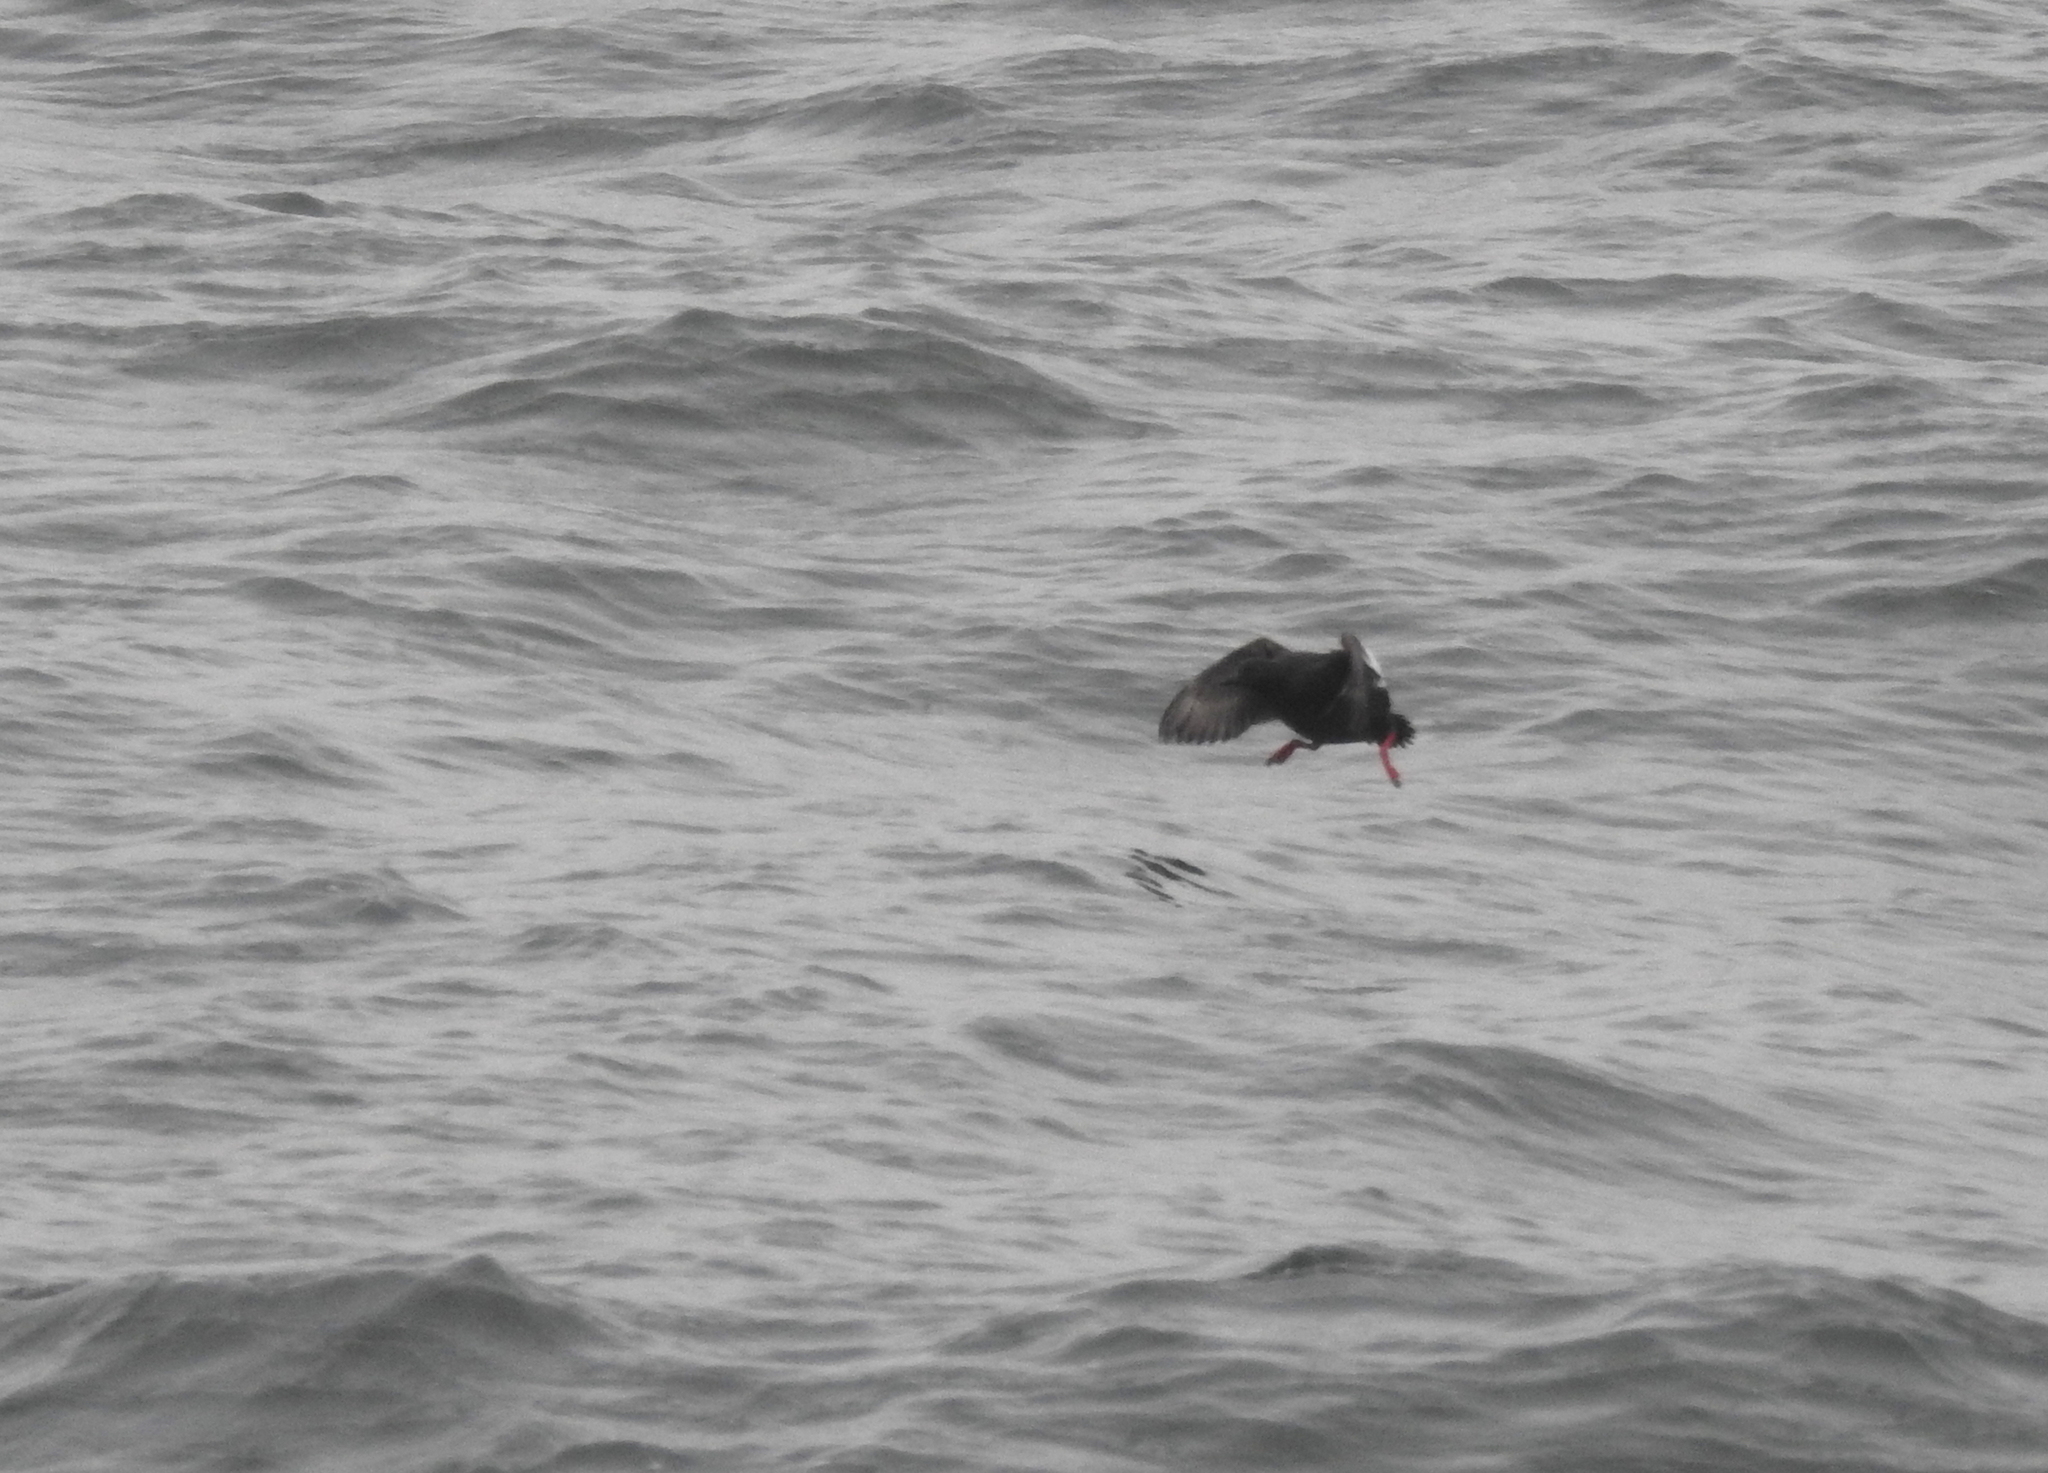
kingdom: Animalia
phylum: Chordata
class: Aves
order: Charadriiformes
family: Alcidae
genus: Cepphus
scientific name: Cepphus columba
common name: Pigeon guillemot
